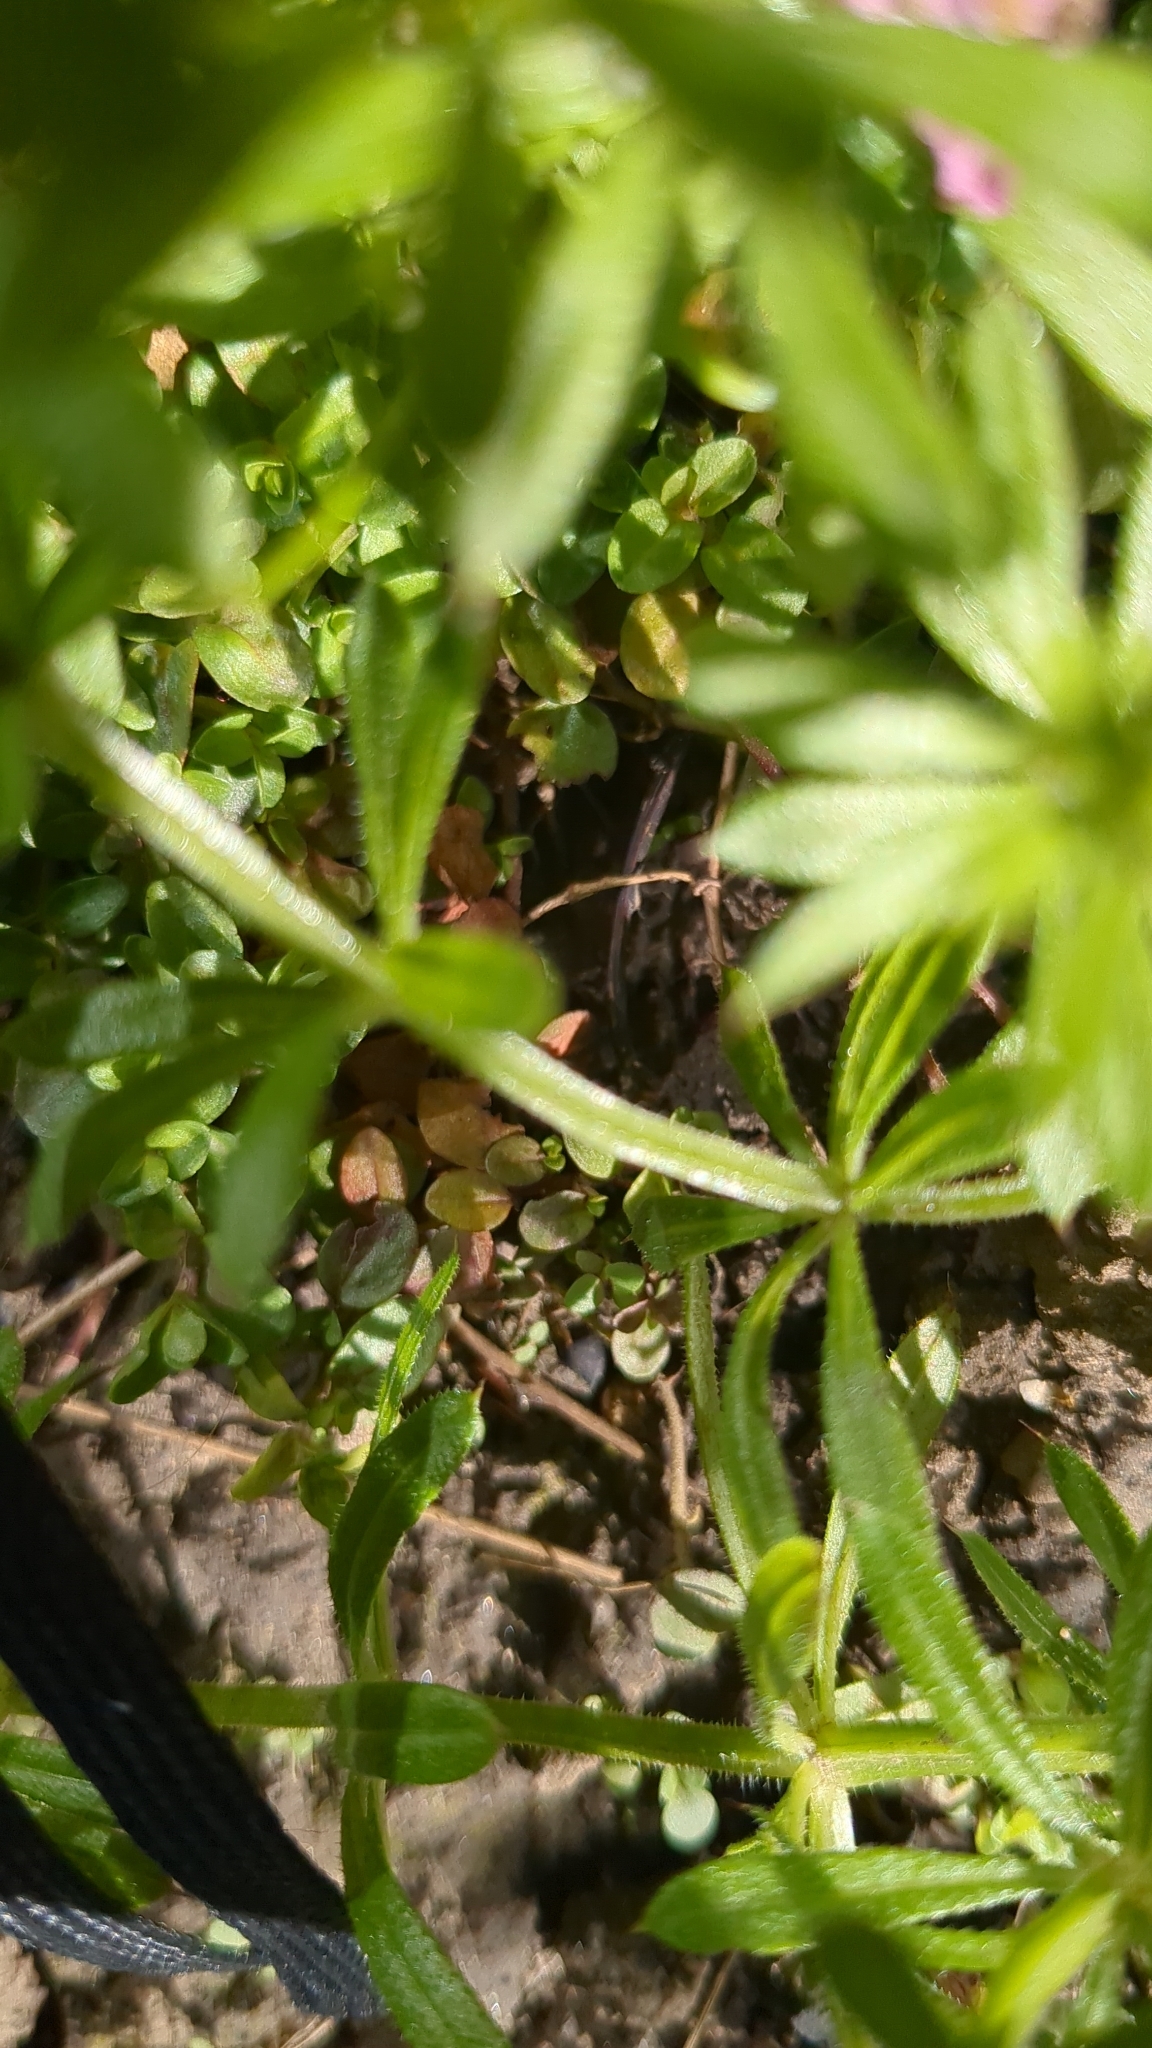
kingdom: Plantae
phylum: Tracheophyta
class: Magnoliopsida
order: Gentianales
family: Rubiaceae
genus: Galium
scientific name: Galium aparine
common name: Cleavers
